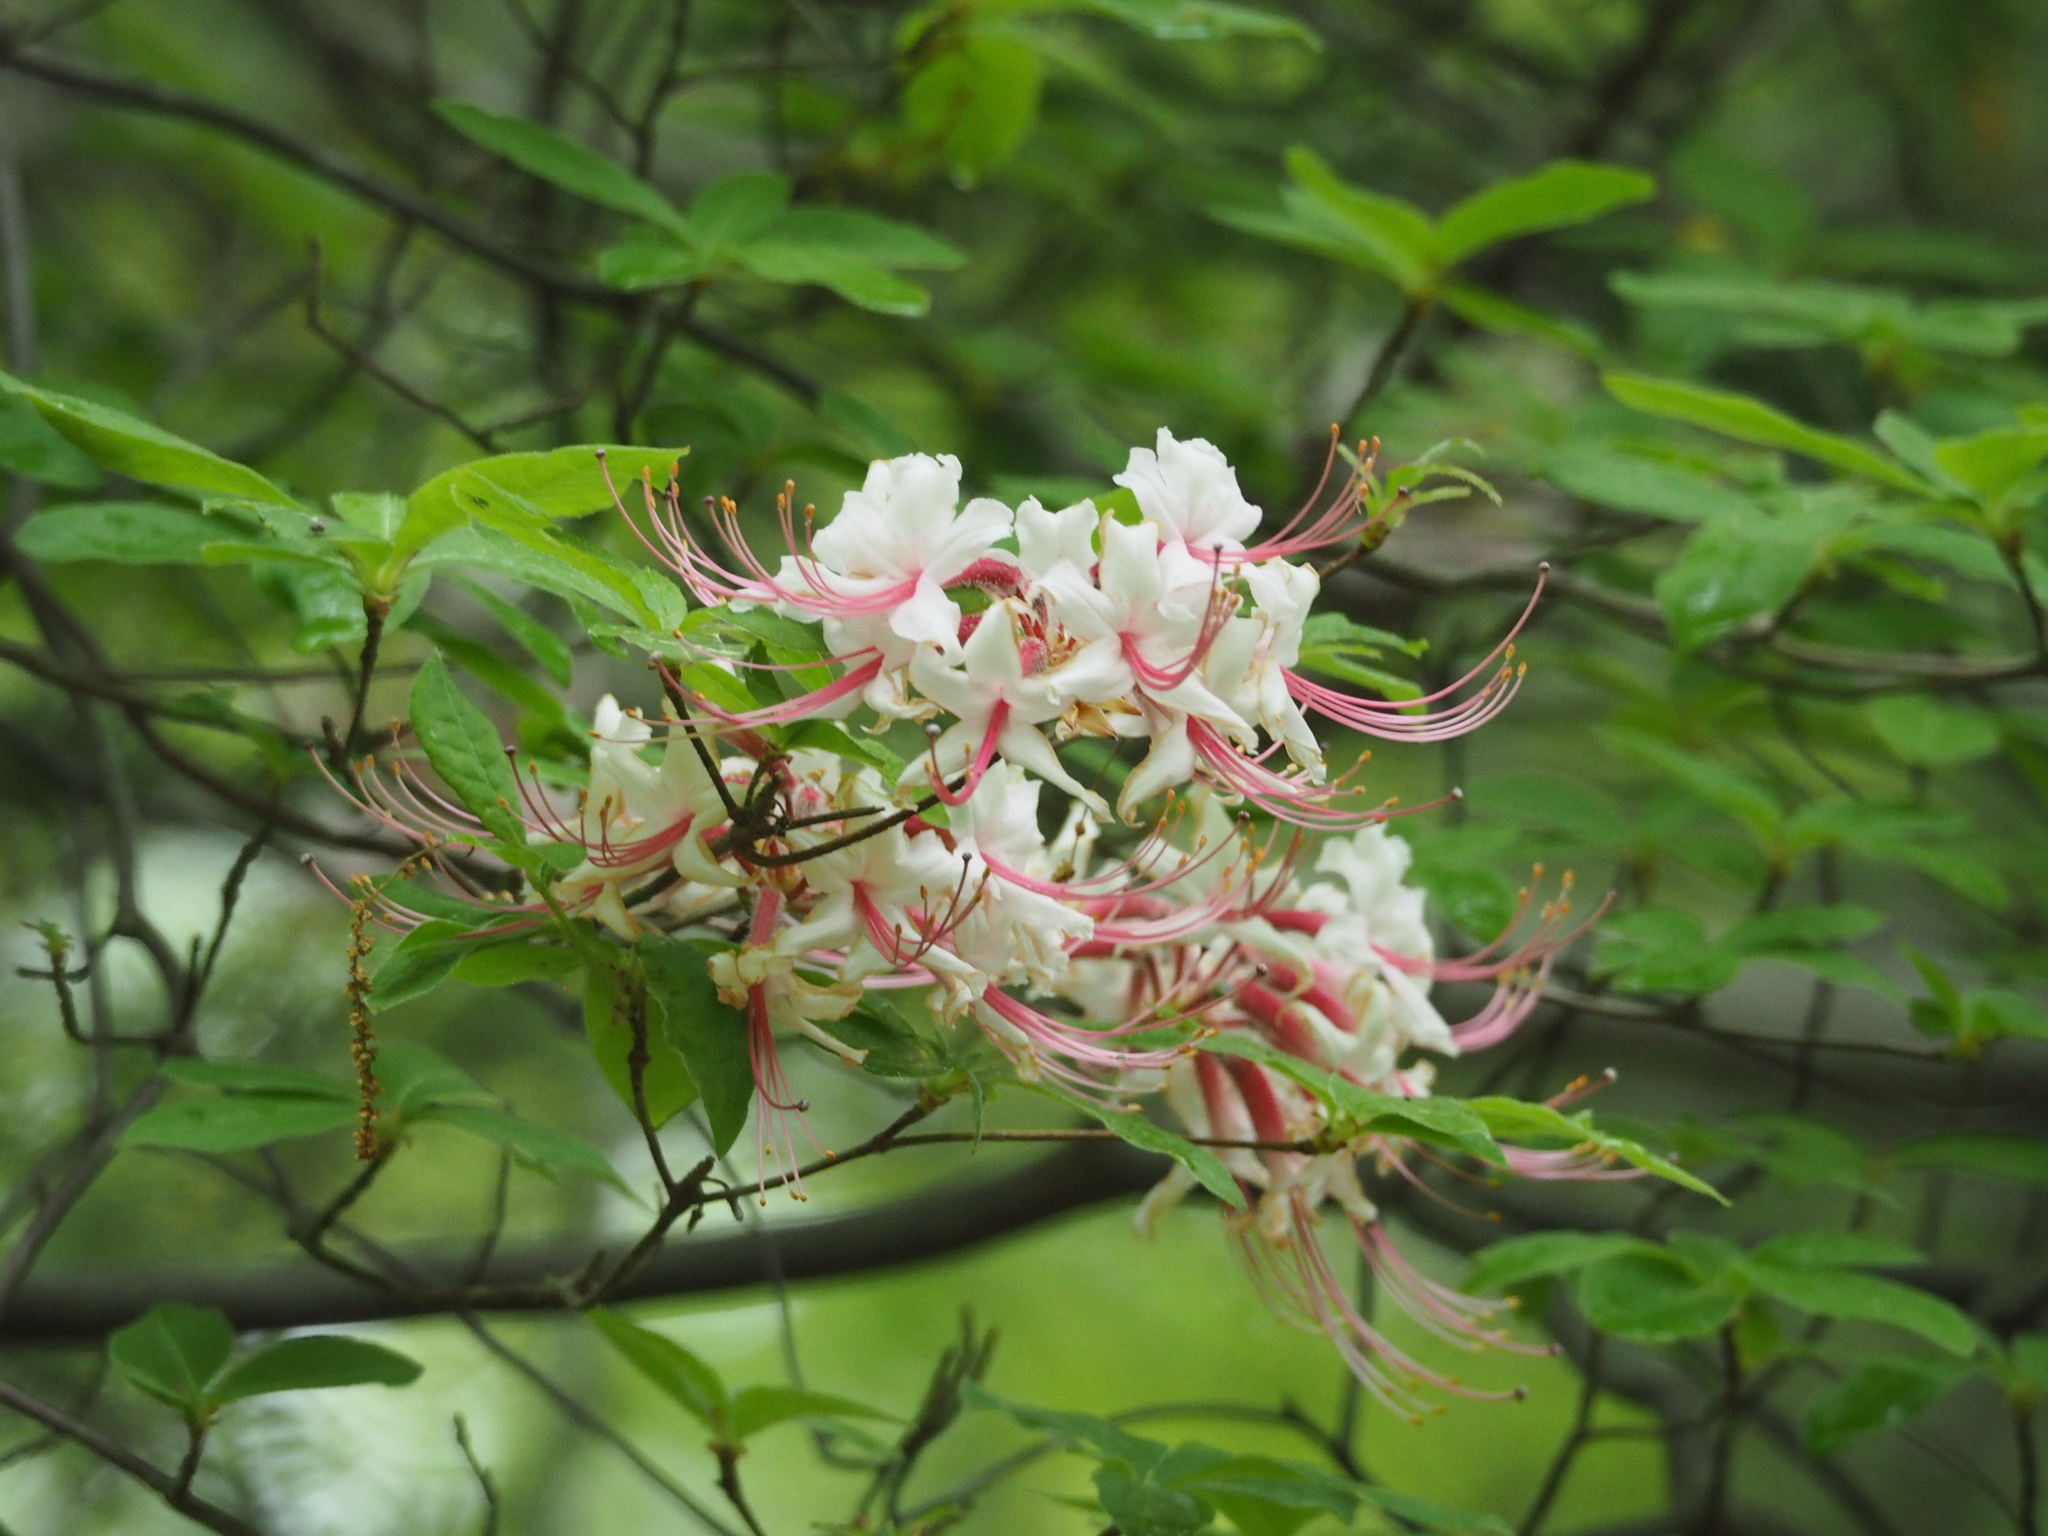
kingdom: Plantae
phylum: Tracheophyta
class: Magnoliopsida
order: Ericales
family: Ericaceae
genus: Rhododendron
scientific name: Rhododendron periclymenoides
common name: Election-pink
